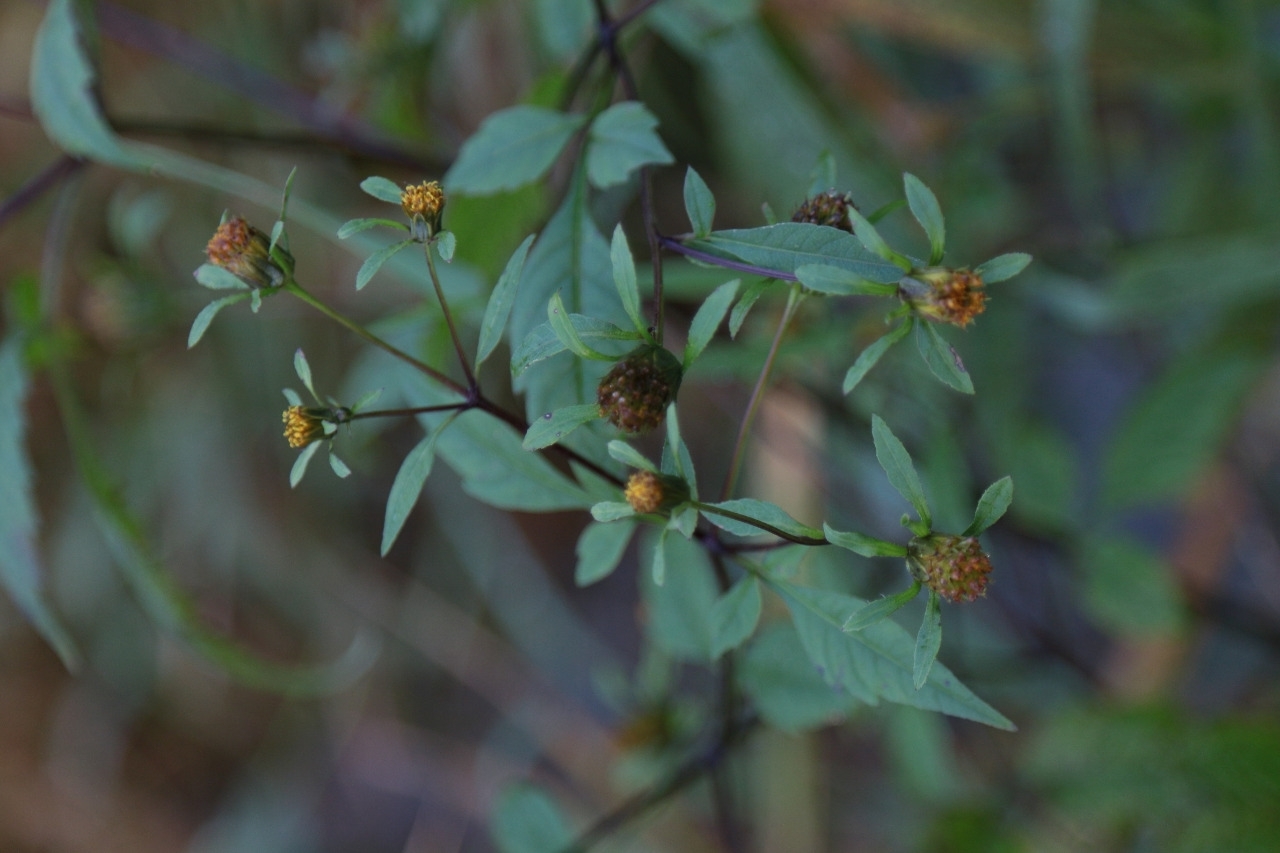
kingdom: Plantae
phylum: Tracheophyta
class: Magnoliopsida
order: Asterales
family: Asteraceae
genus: Bidens
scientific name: Bidens frondosa
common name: Beggarticks
